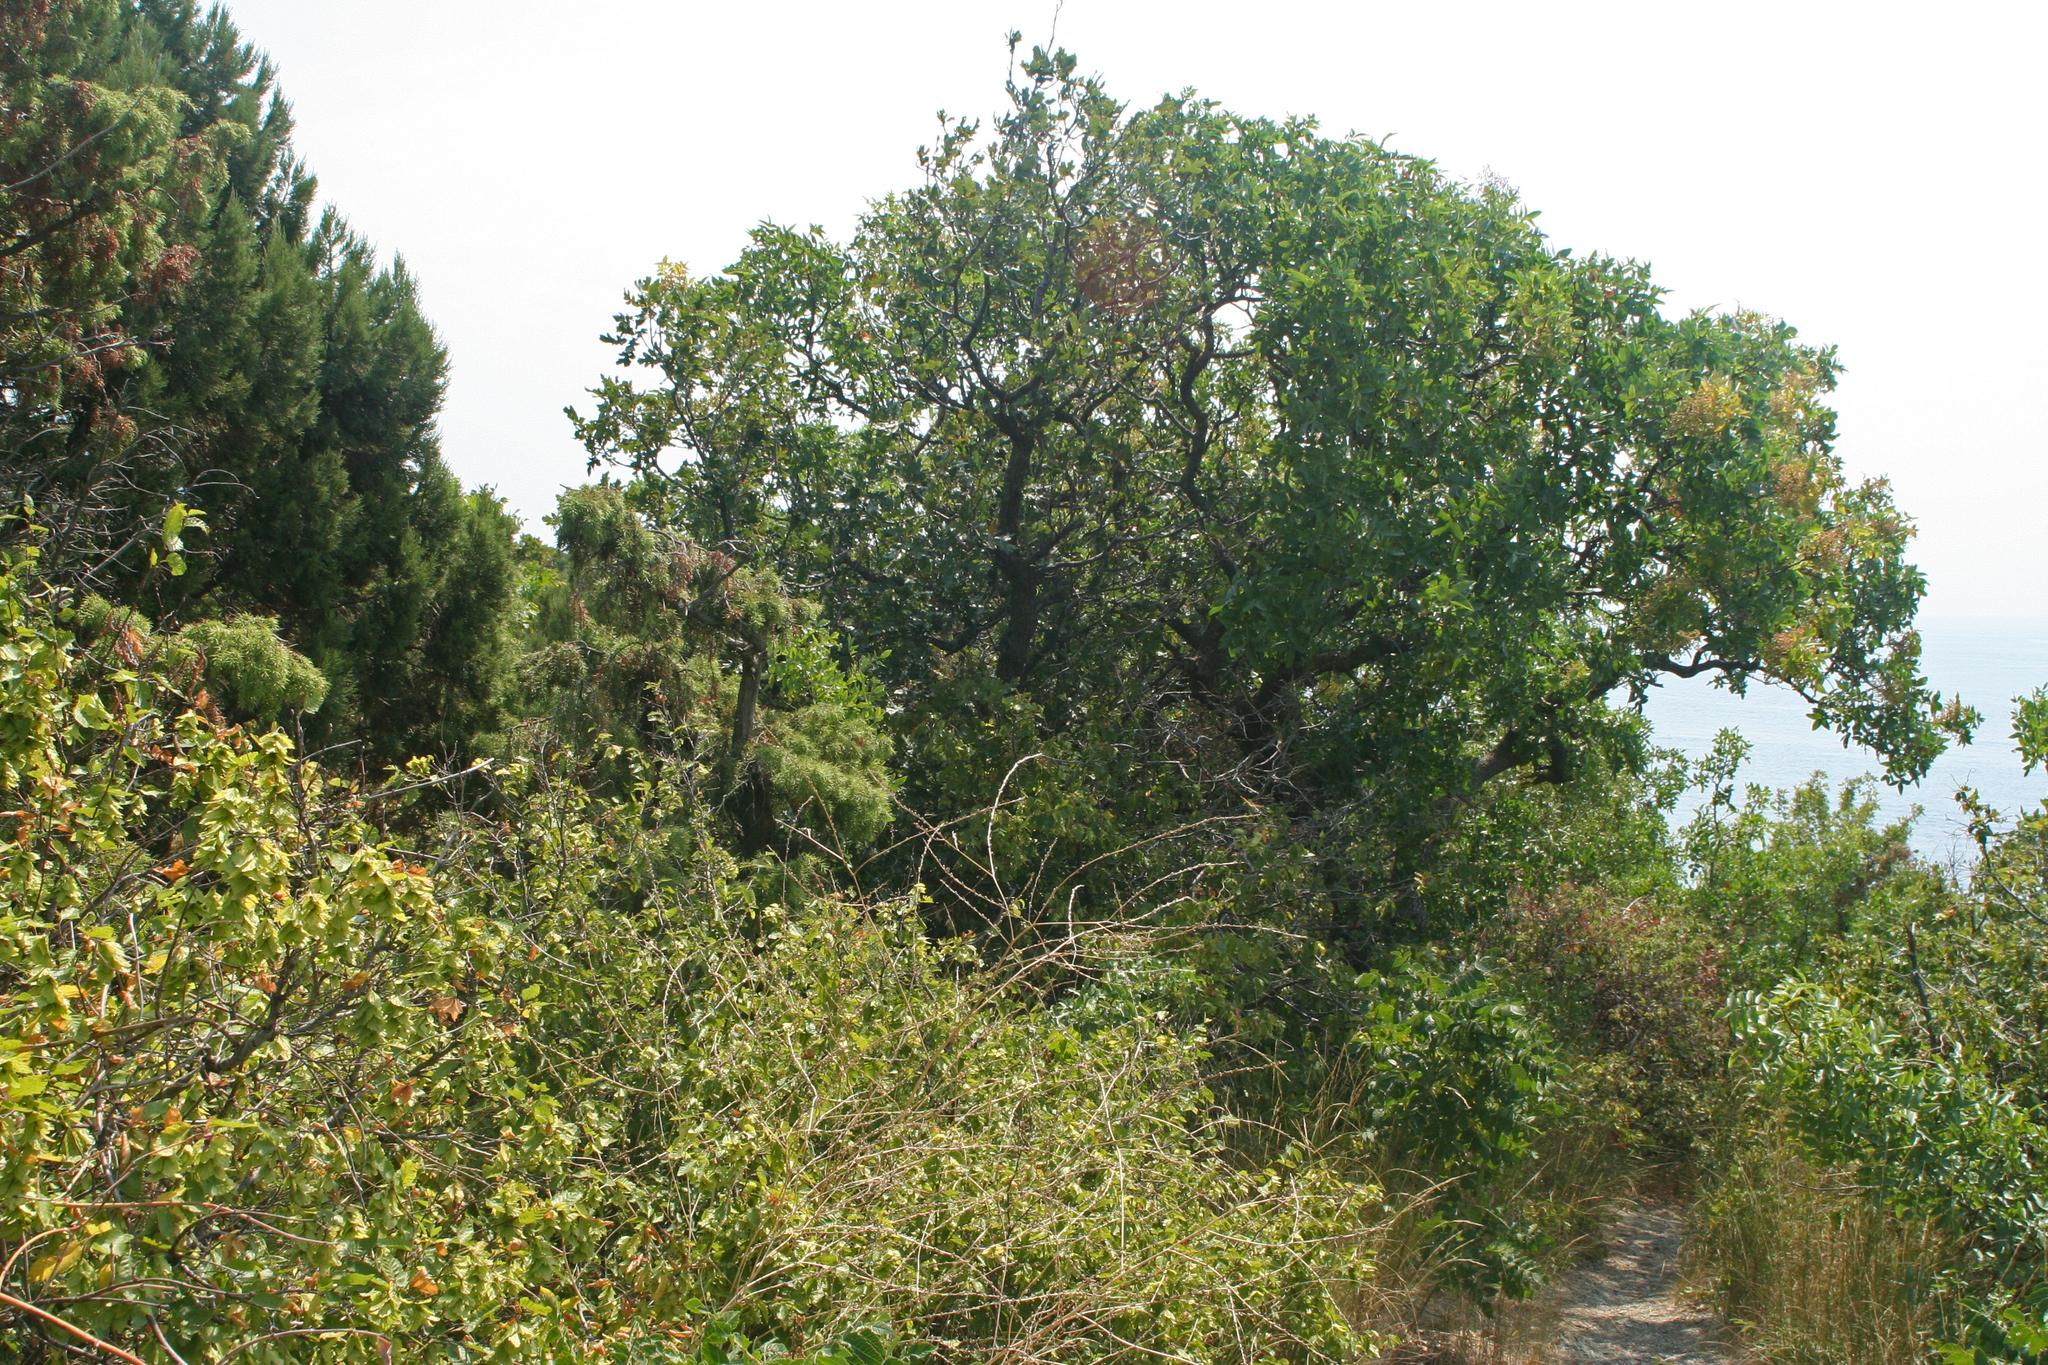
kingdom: Plantae
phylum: Tracheophyta
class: Magnoliopsida
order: Sapindales
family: Anacardiaceae
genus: Pistacia
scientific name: Pistacia atlantica
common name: Mt. atlas mastic tree
